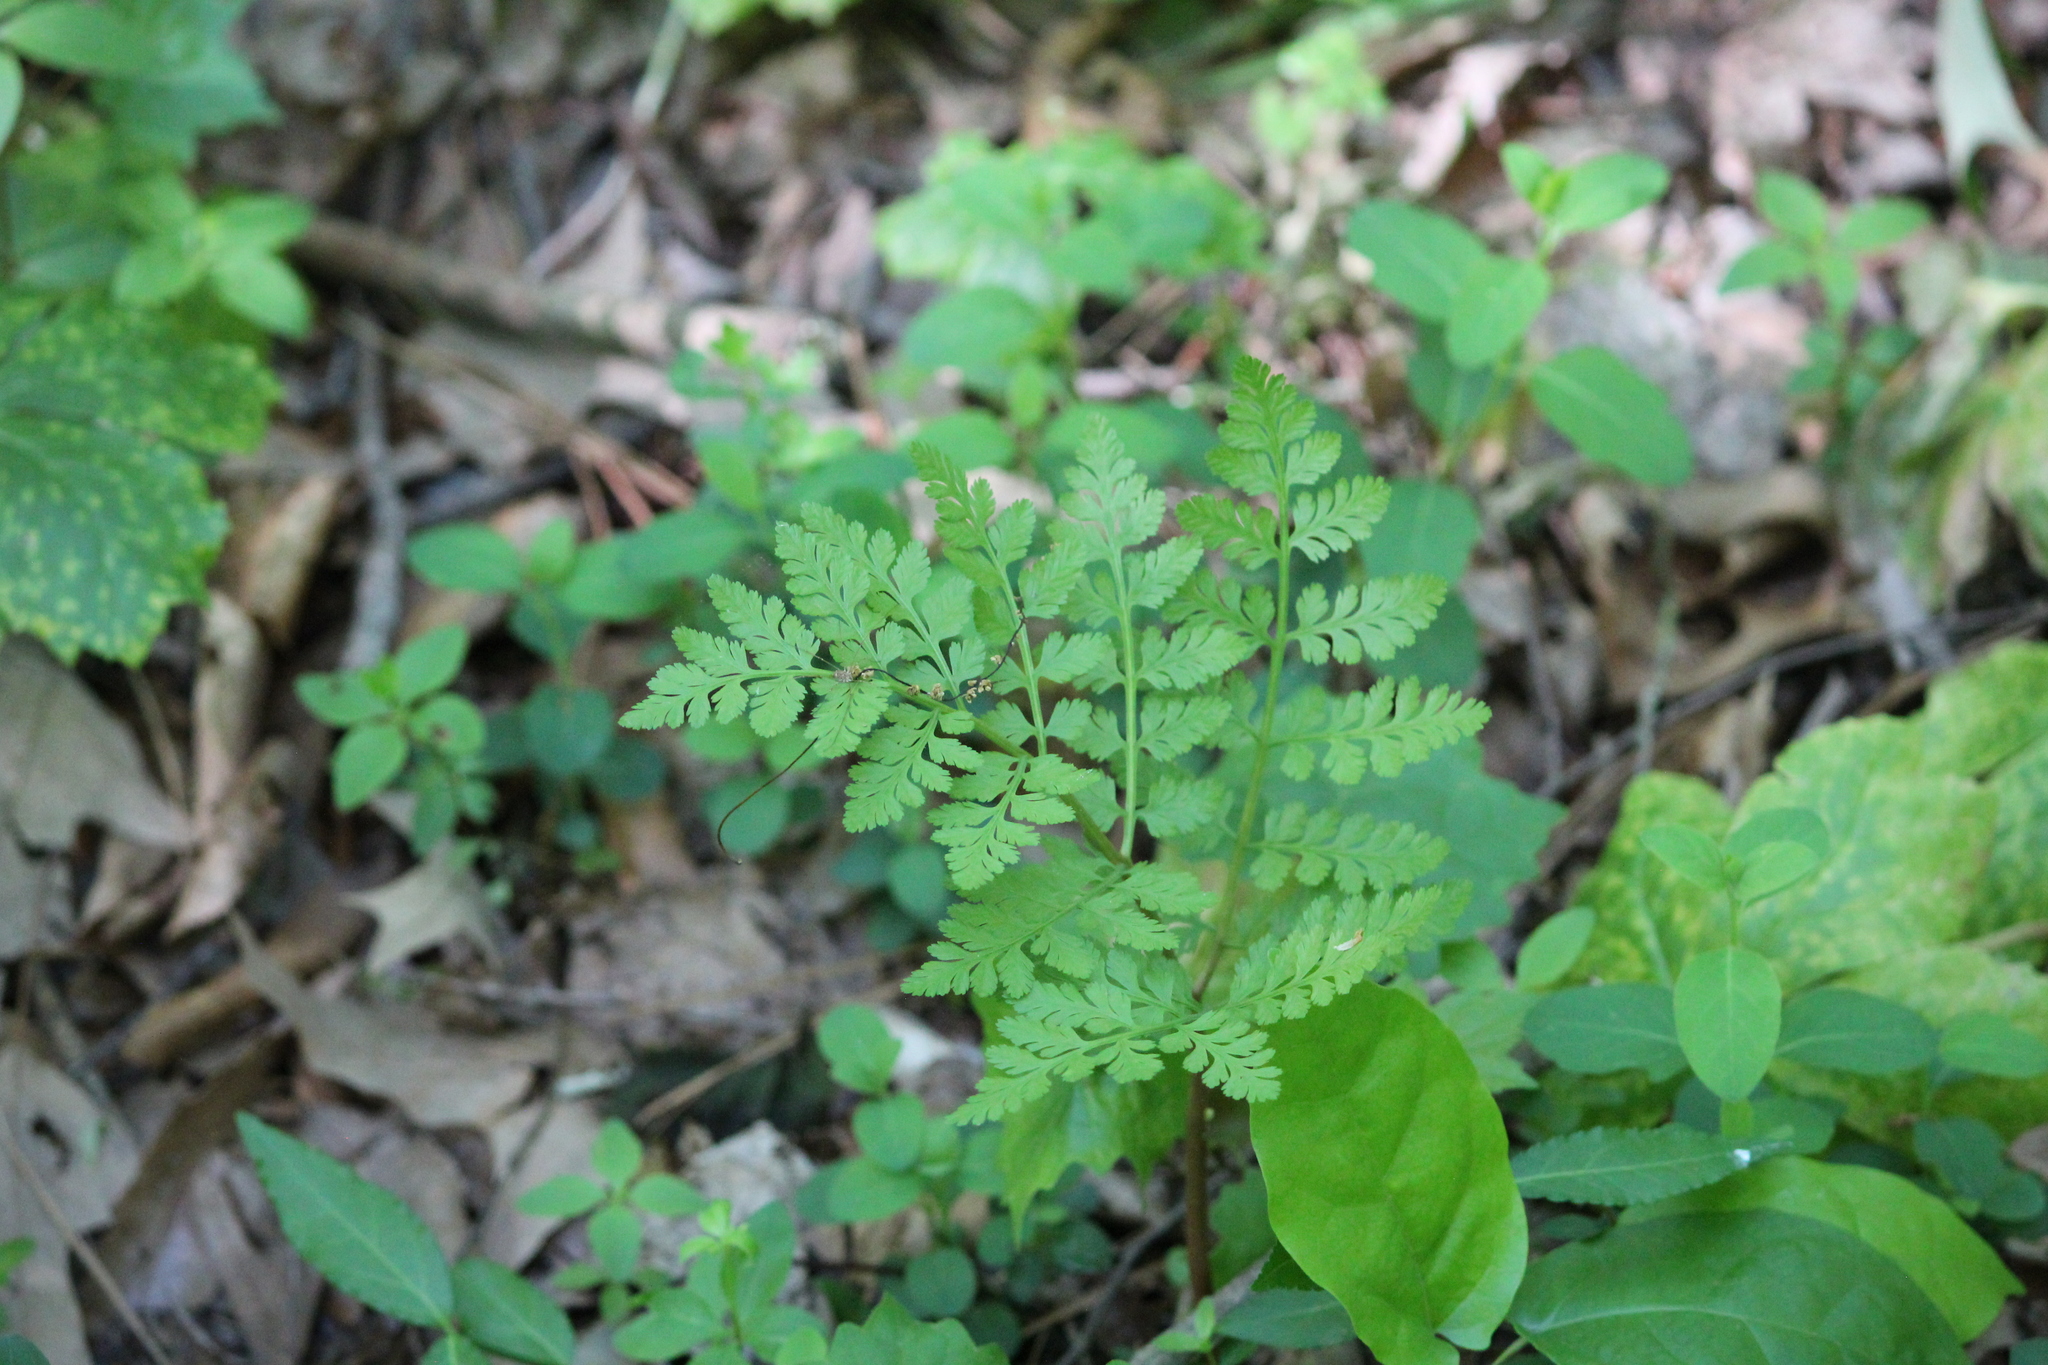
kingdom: Plantae
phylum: Tracheophyta
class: Polypodiopsida
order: Ophioglossales
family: Ophioglossaceae
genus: Botrypus
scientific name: Botrypus virginianus
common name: Common grapefern
